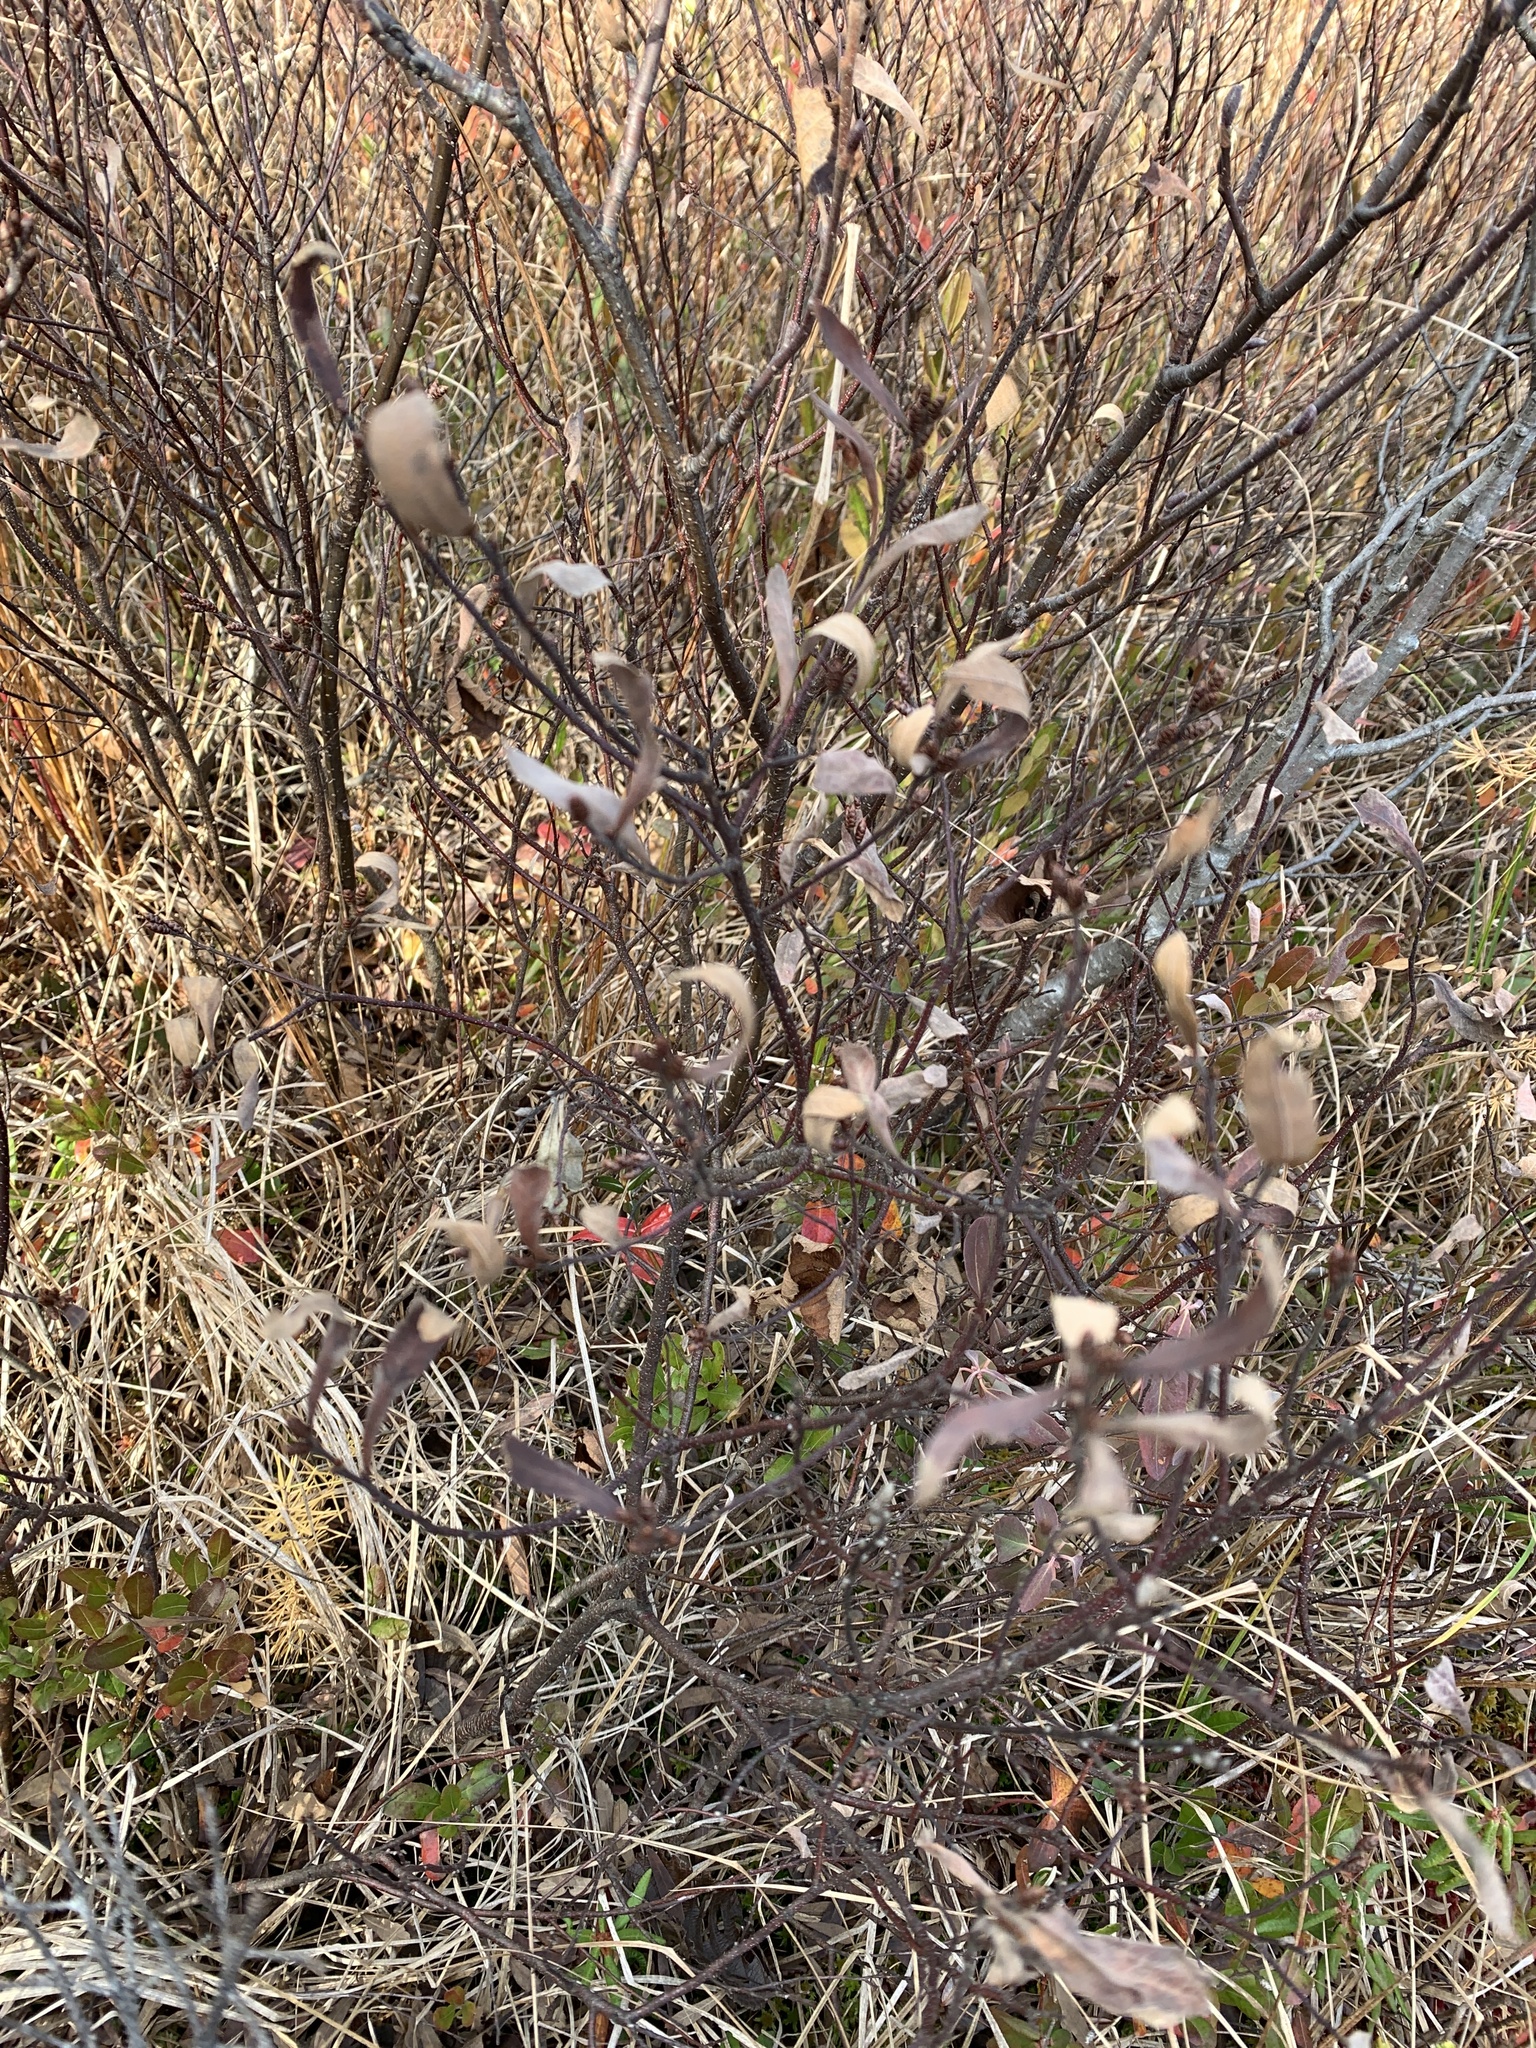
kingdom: Plantae
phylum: Tracheophyta
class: Magnoliopsida
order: Fagales
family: Myricaceae
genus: Myrica
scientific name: Myrica gale
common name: Sweet gale
